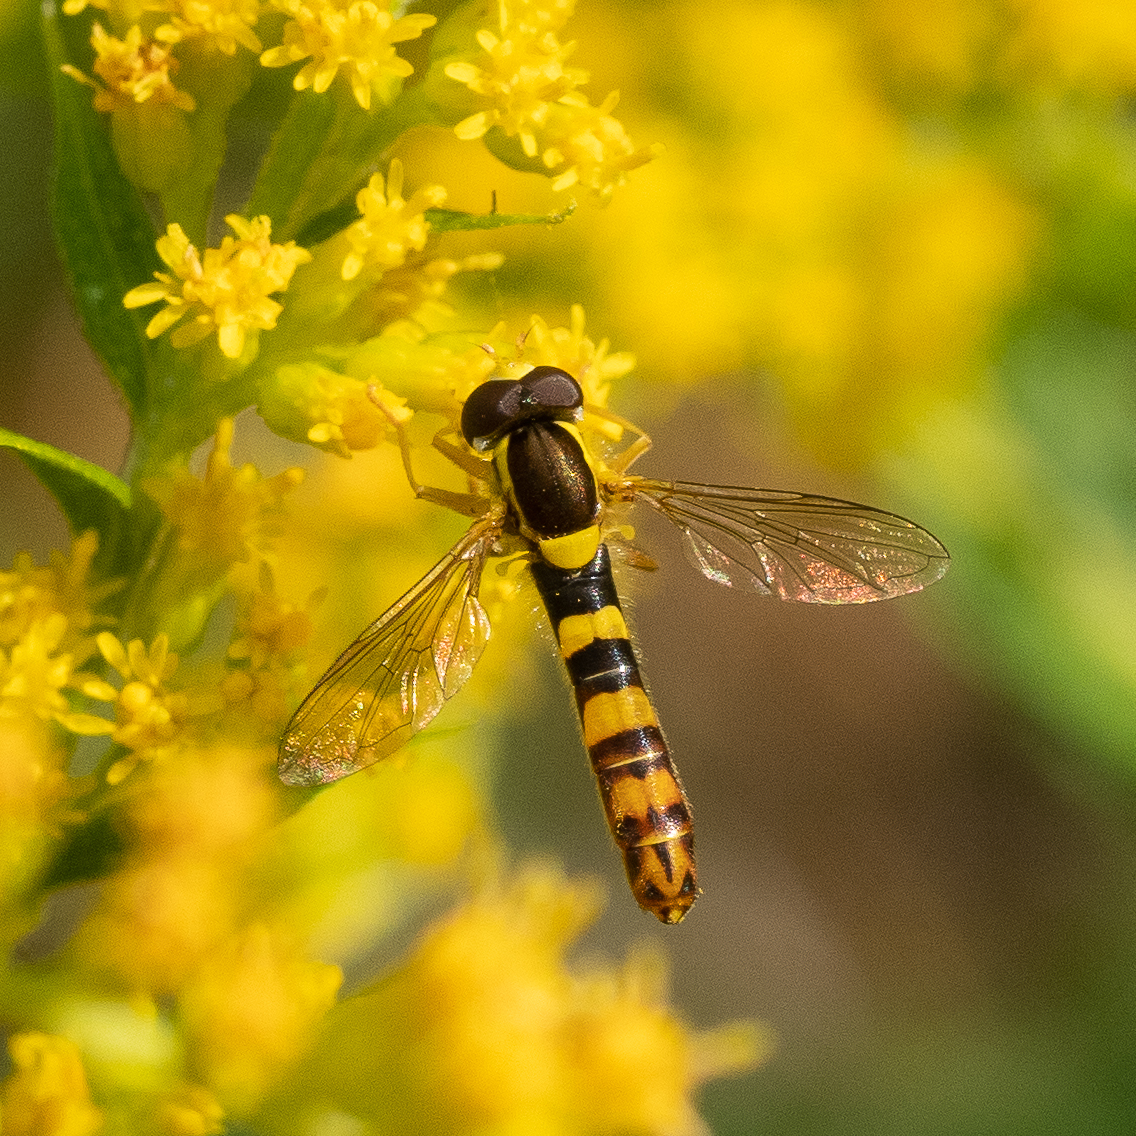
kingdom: Animalia
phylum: Arthropoda
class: Insecta
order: Diptera
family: Syrphidae
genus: Sphaerophoria
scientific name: Sphaerophoria scripta
